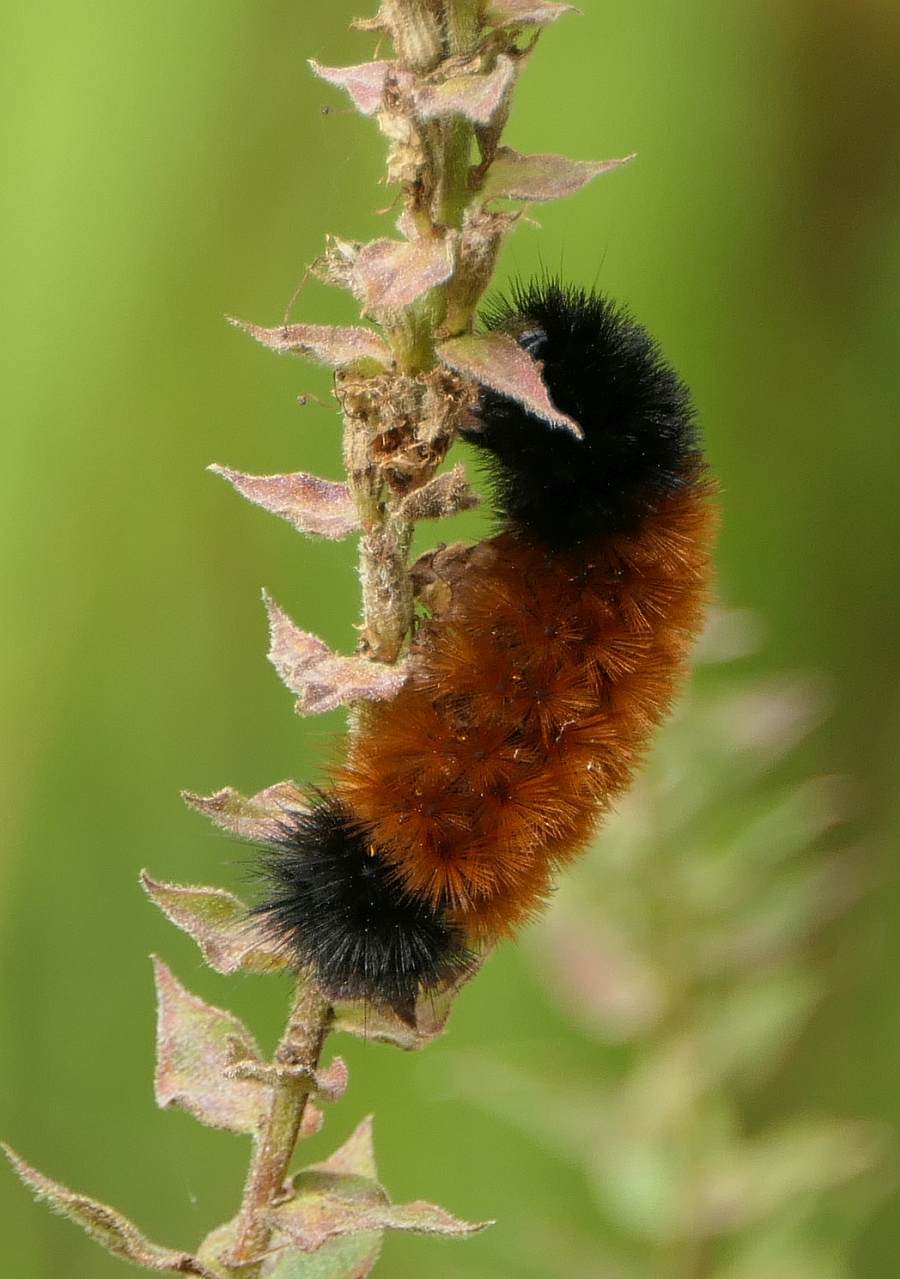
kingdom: Animalia
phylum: Arthropoda
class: Insecta
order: Lepidoptera
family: Erebidae
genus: Pyrrharctia
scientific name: Pyrrharctia isabella
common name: Isabella tiger moth
